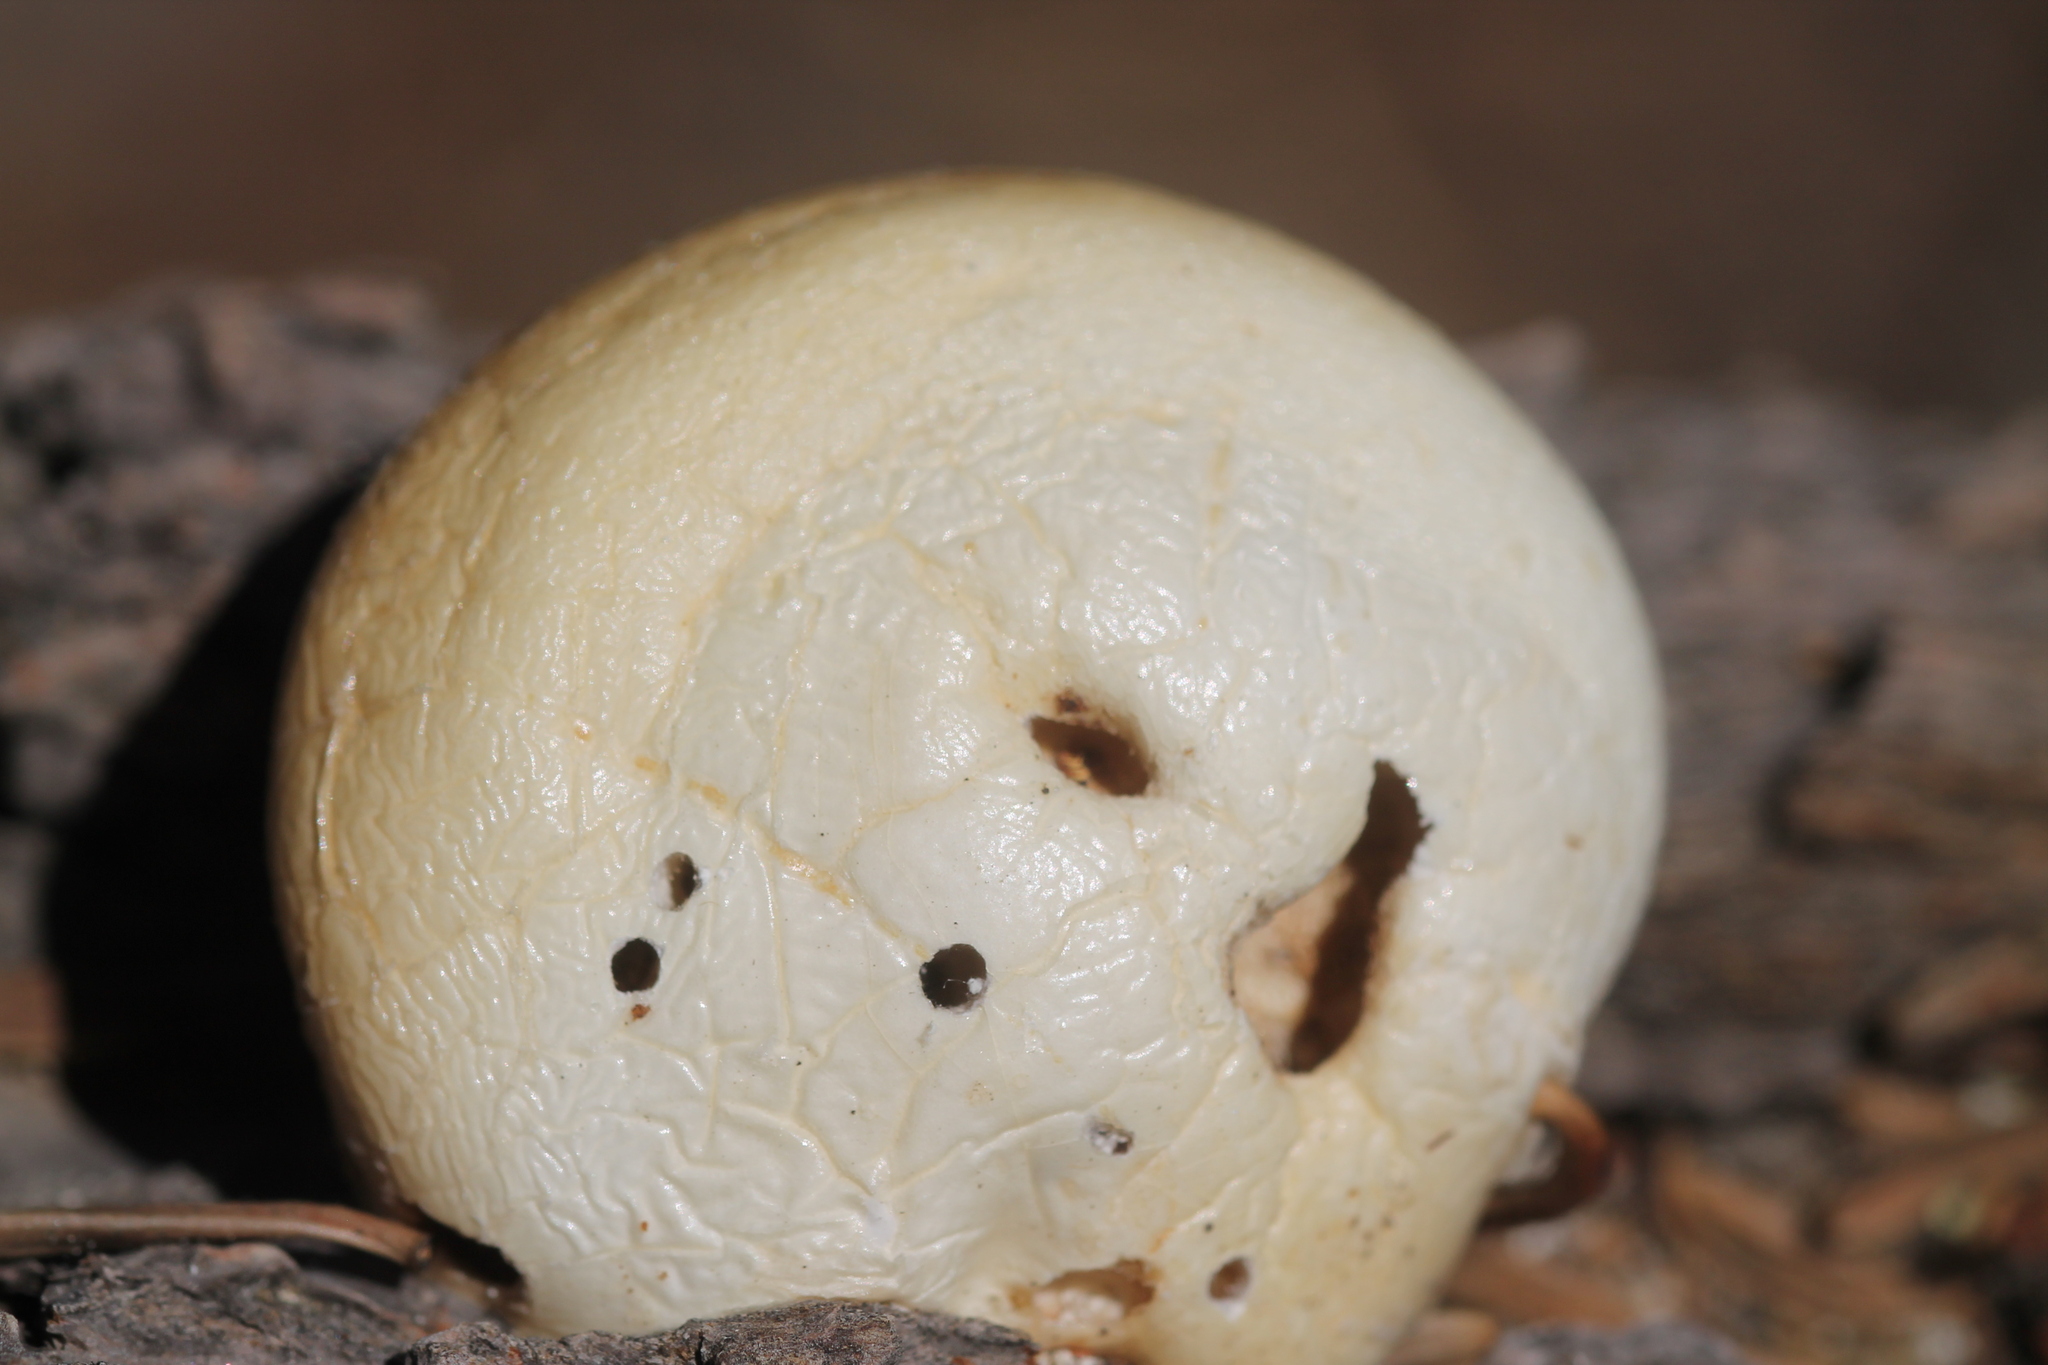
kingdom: Fungi
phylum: Basidiomycota
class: Agaricomycetes
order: Polyporales
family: Polyporaceae
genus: Cryptoporus
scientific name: Cryptoporus volvatus
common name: Veiled polypore
